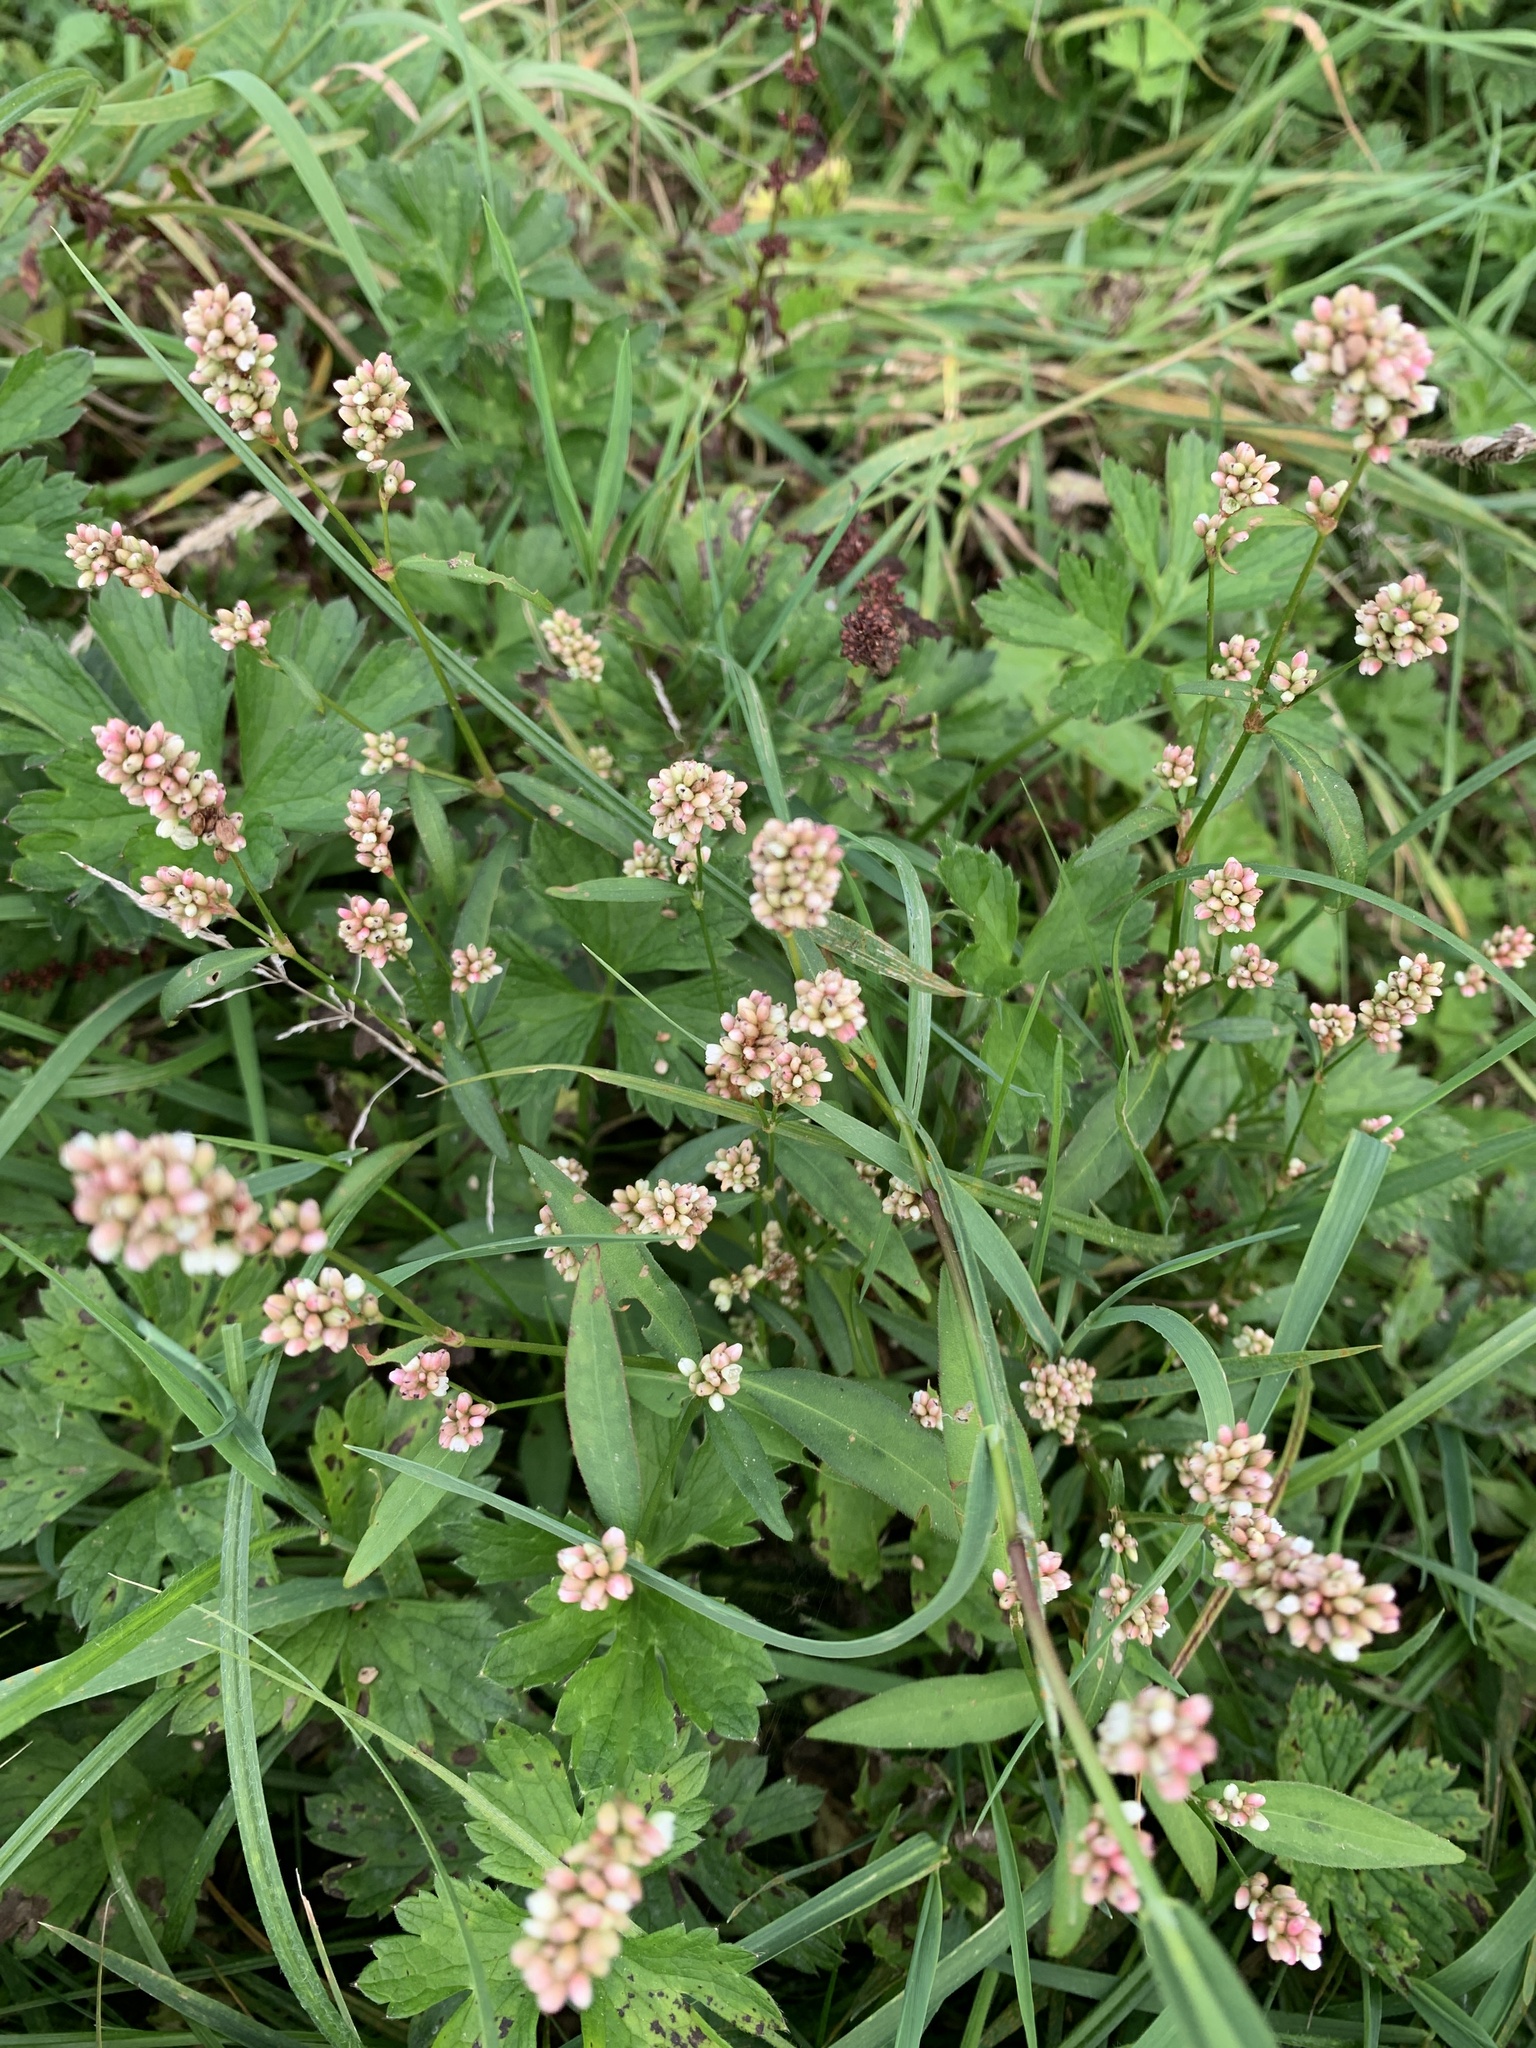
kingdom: Plantae
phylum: Tracheophyta
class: Magnoliopsida
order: Caryophyllales
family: Polygonaceae
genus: Persicaria
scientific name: Persicaria maculosa
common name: Redshank
